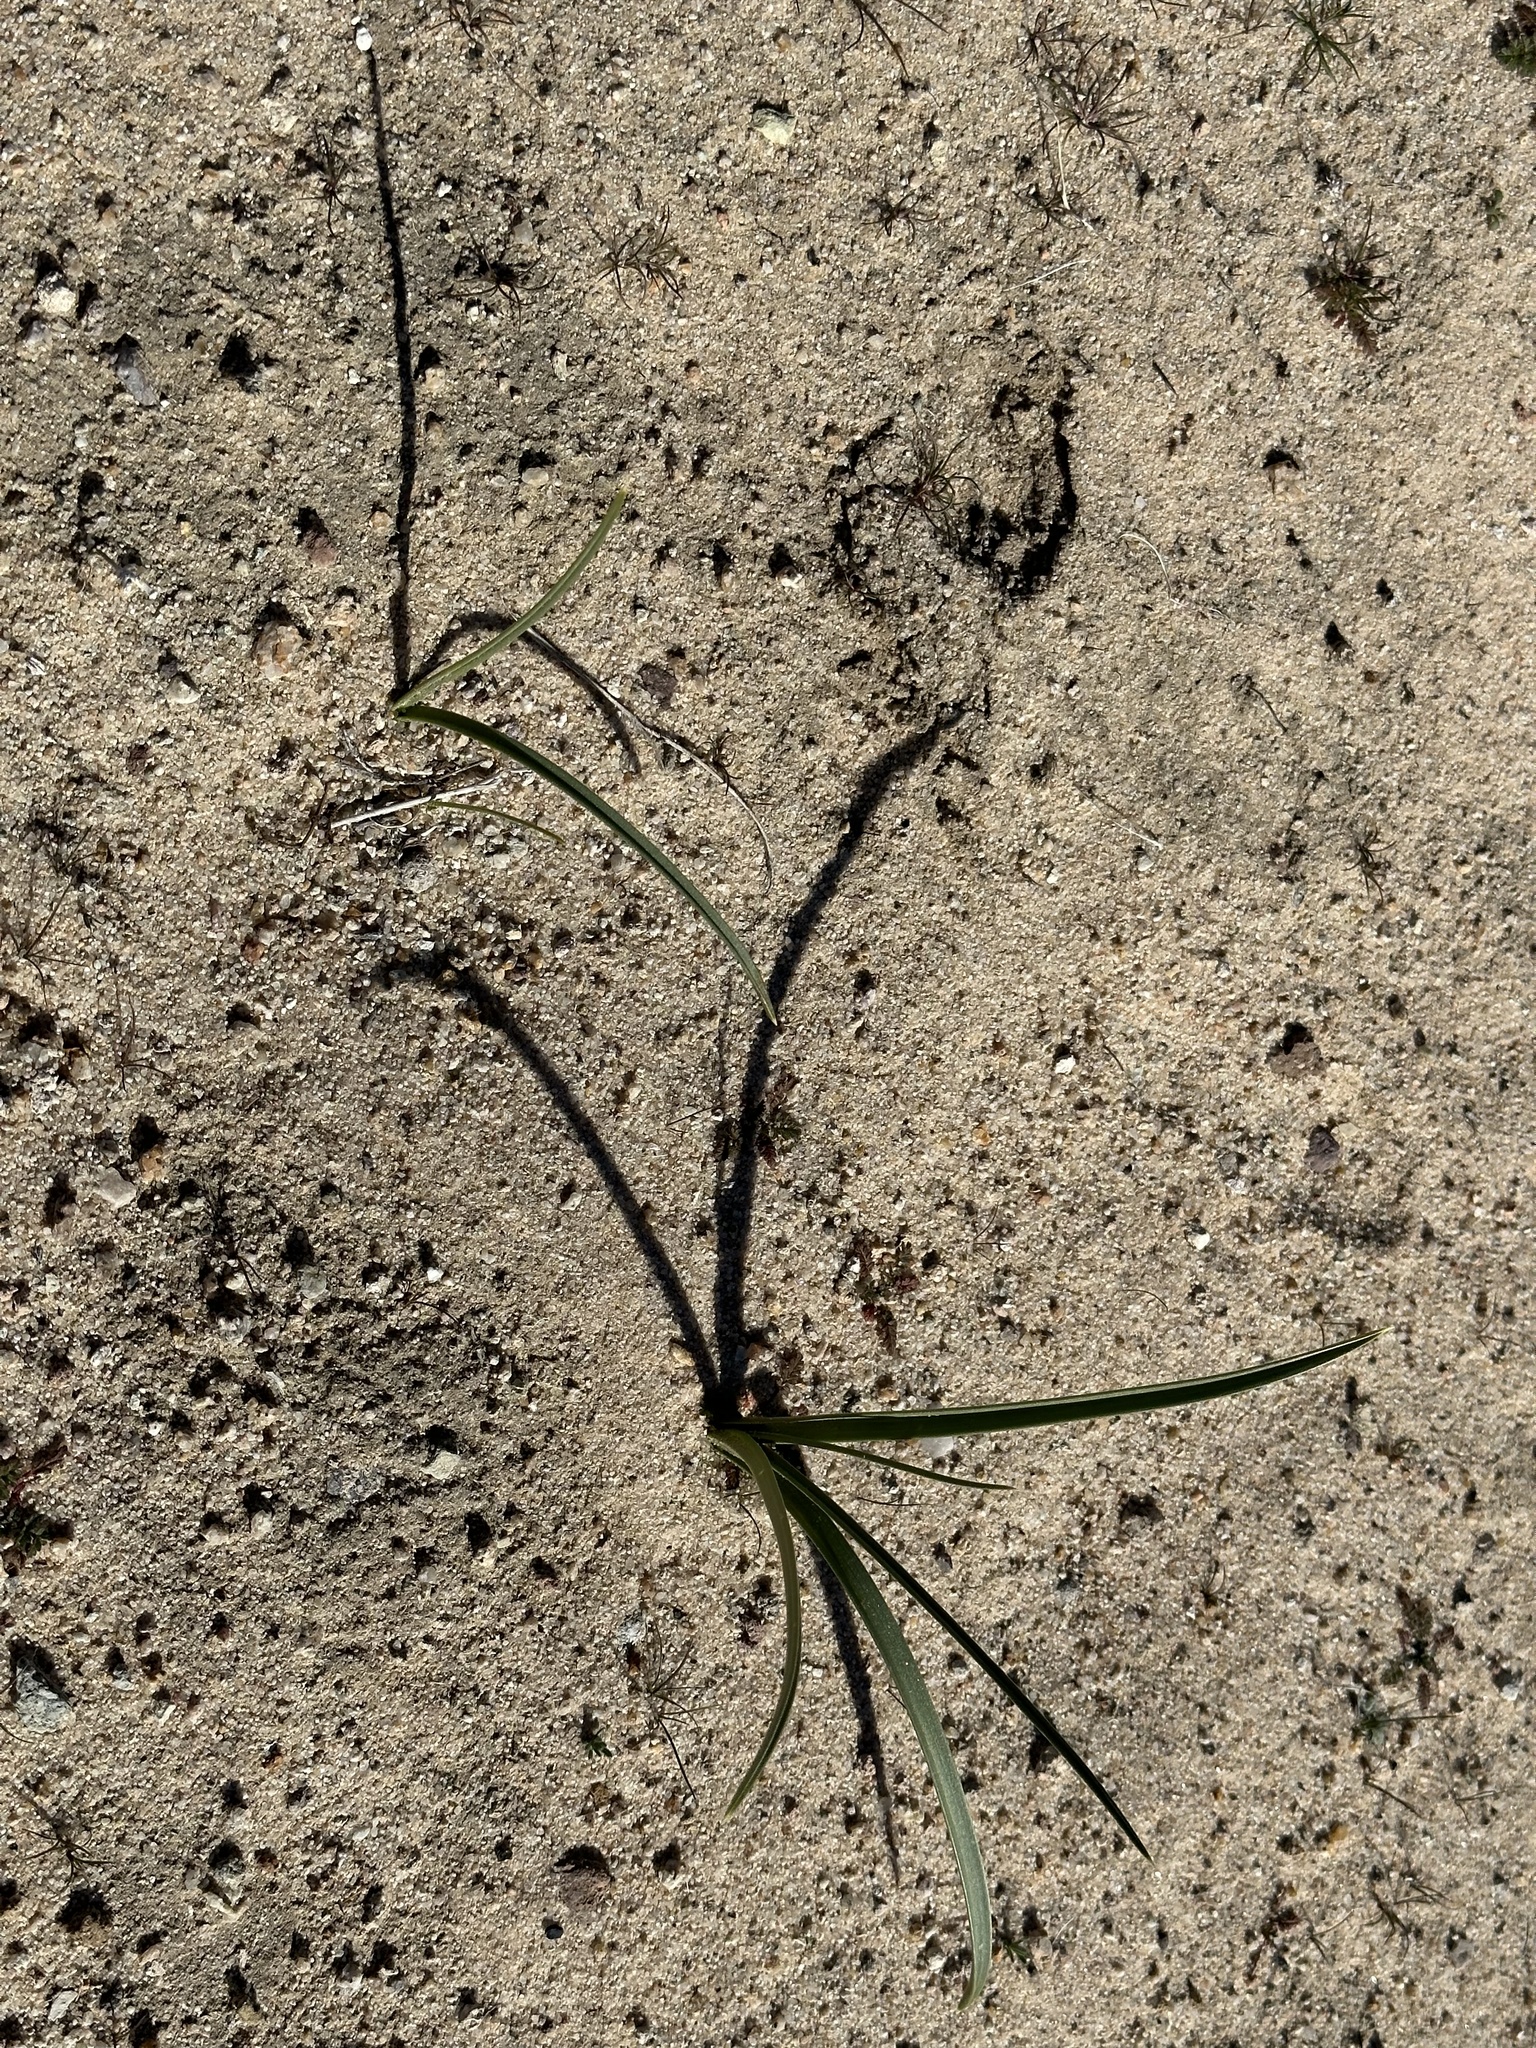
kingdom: Plantae
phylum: Tracheophyta
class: Liliopsida
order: Asparagales
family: Asparagaceae
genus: Hesperocallis
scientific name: Hesperocallis undulata
